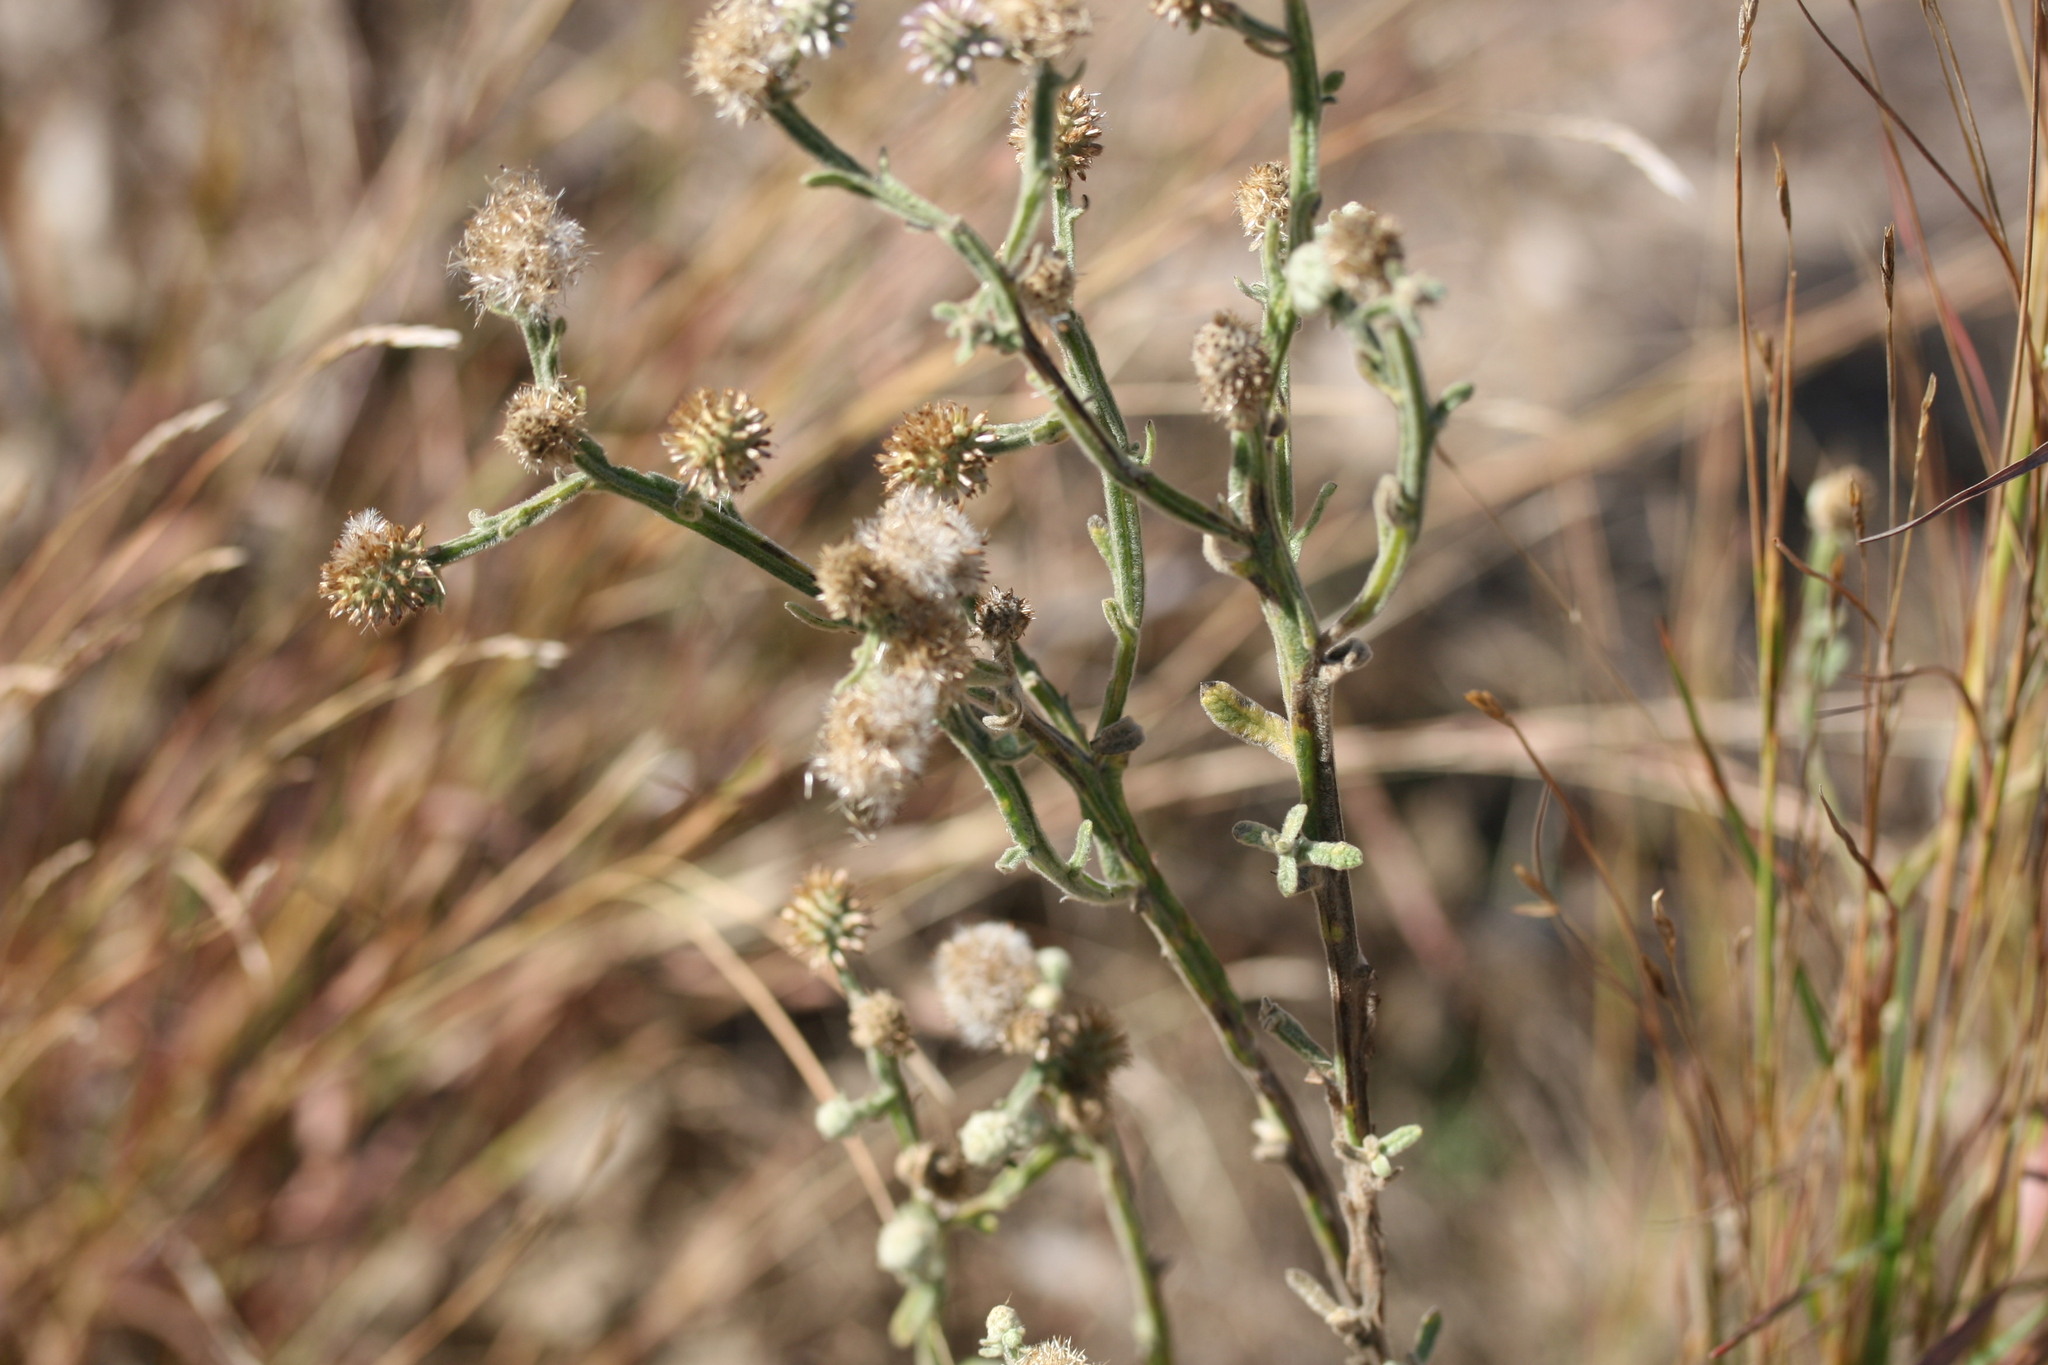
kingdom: Plantae
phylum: Tracheophyta
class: Magnoliopsida
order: Asterales
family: Asteraceae
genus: Pterocaulon
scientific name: Pterocaulon sphacelatum
